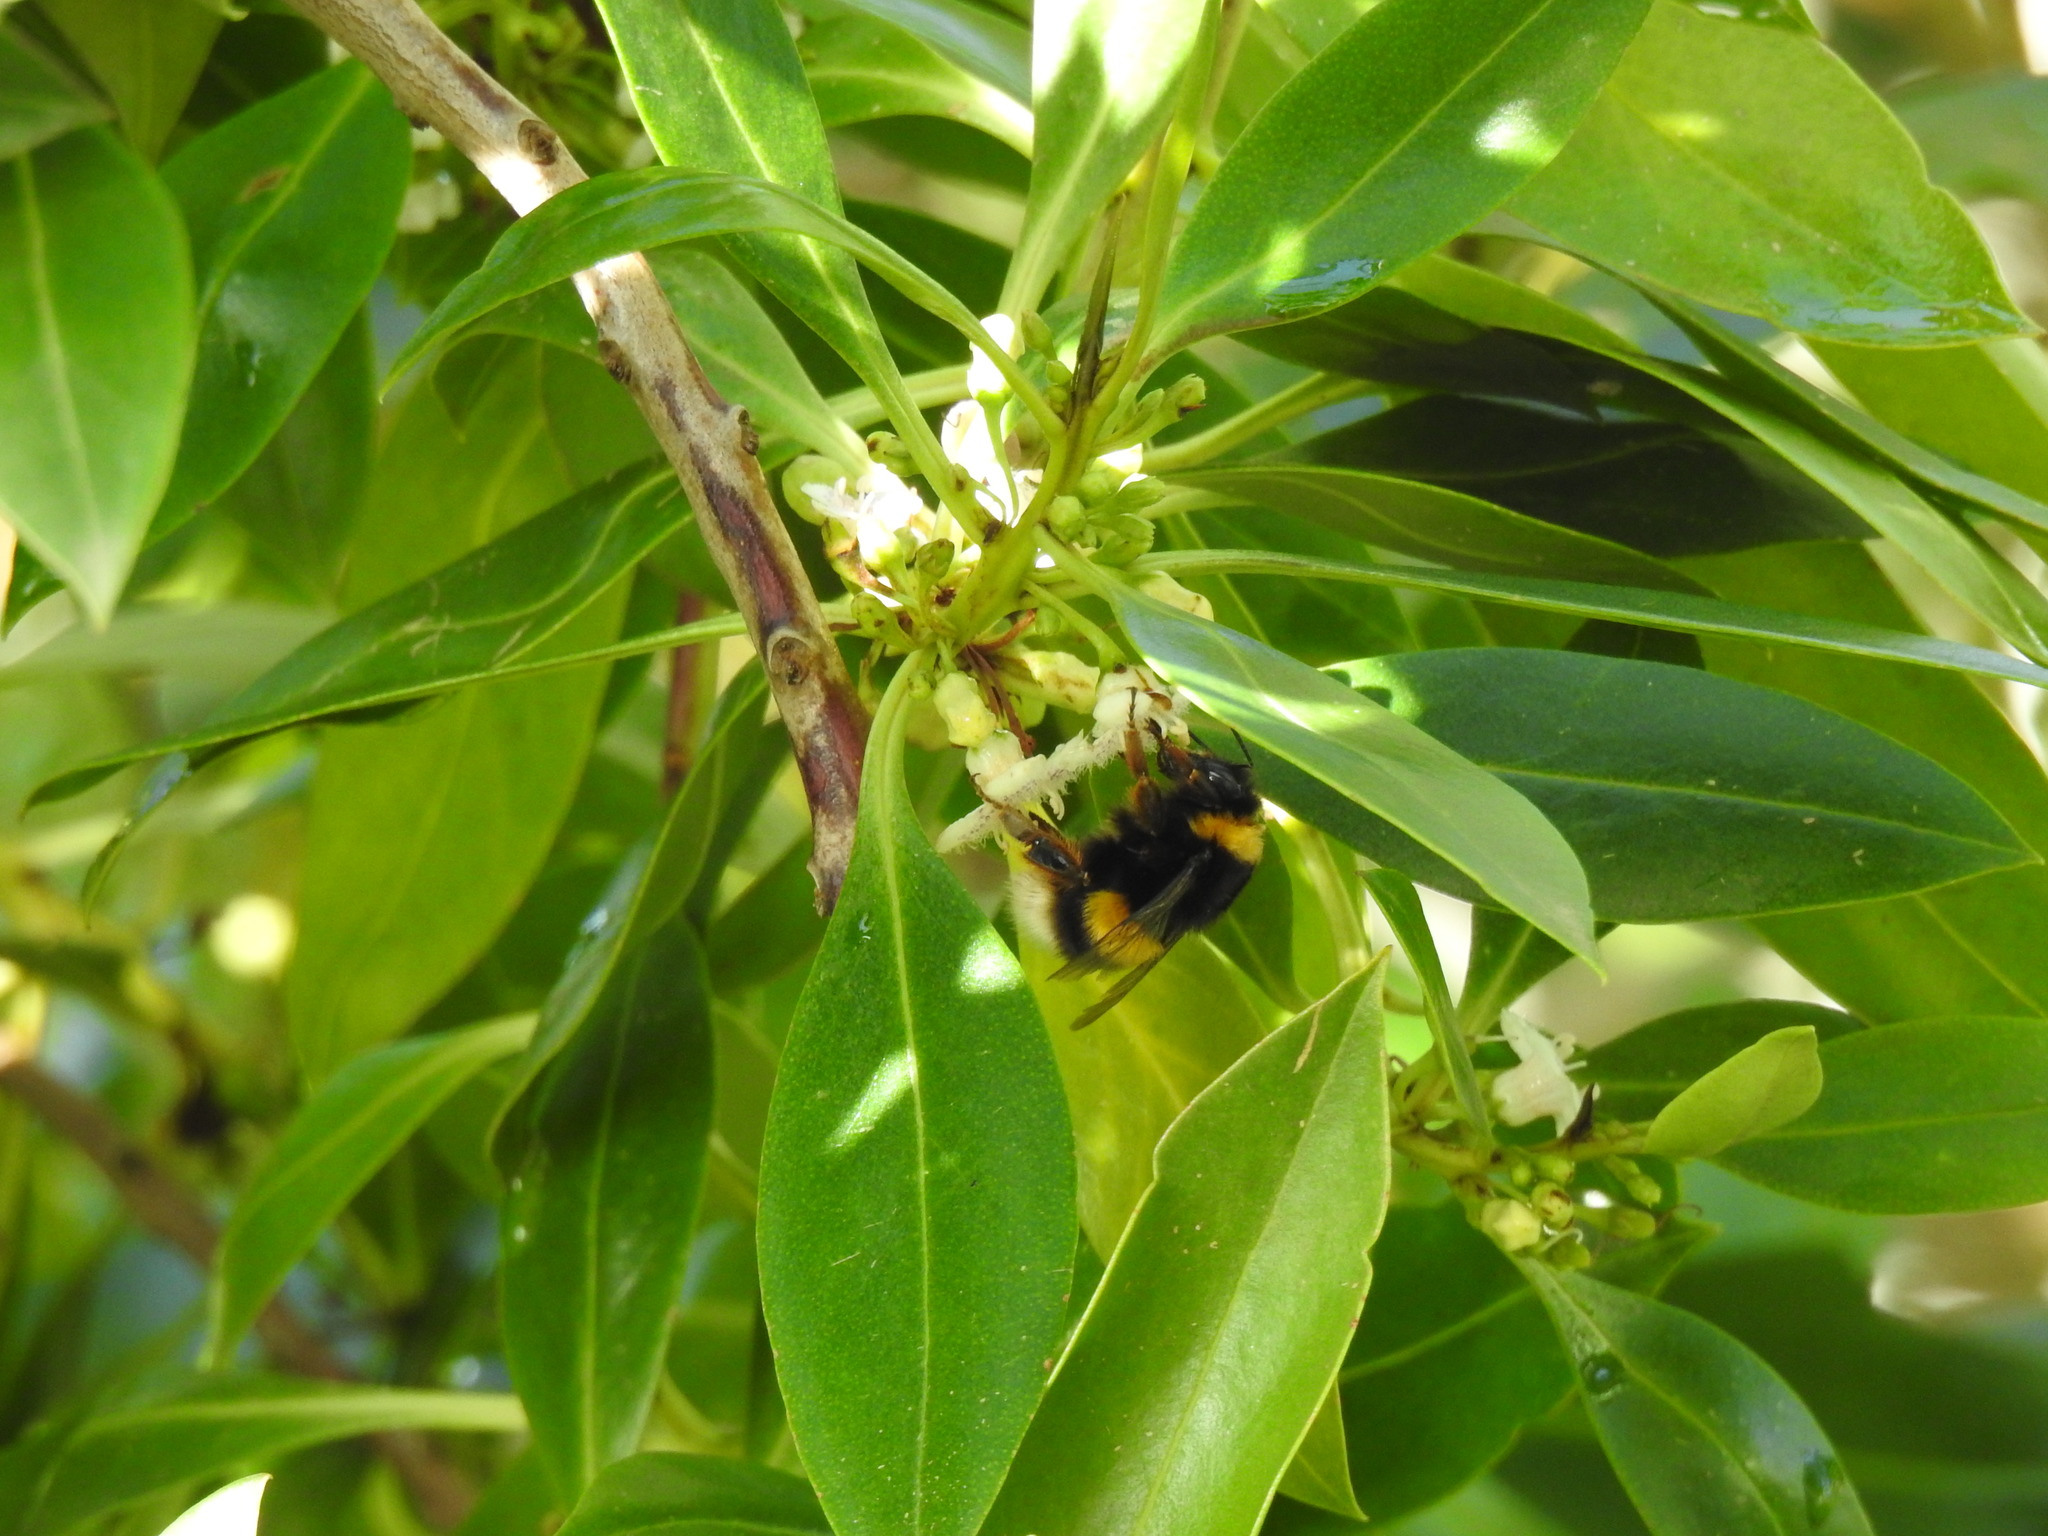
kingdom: Animalia
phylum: Arthropoda
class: Insecta
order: Hymenoptera
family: Apidae
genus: Bombus
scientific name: Bombus terrestris
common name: Buff-tailed bumblebee
